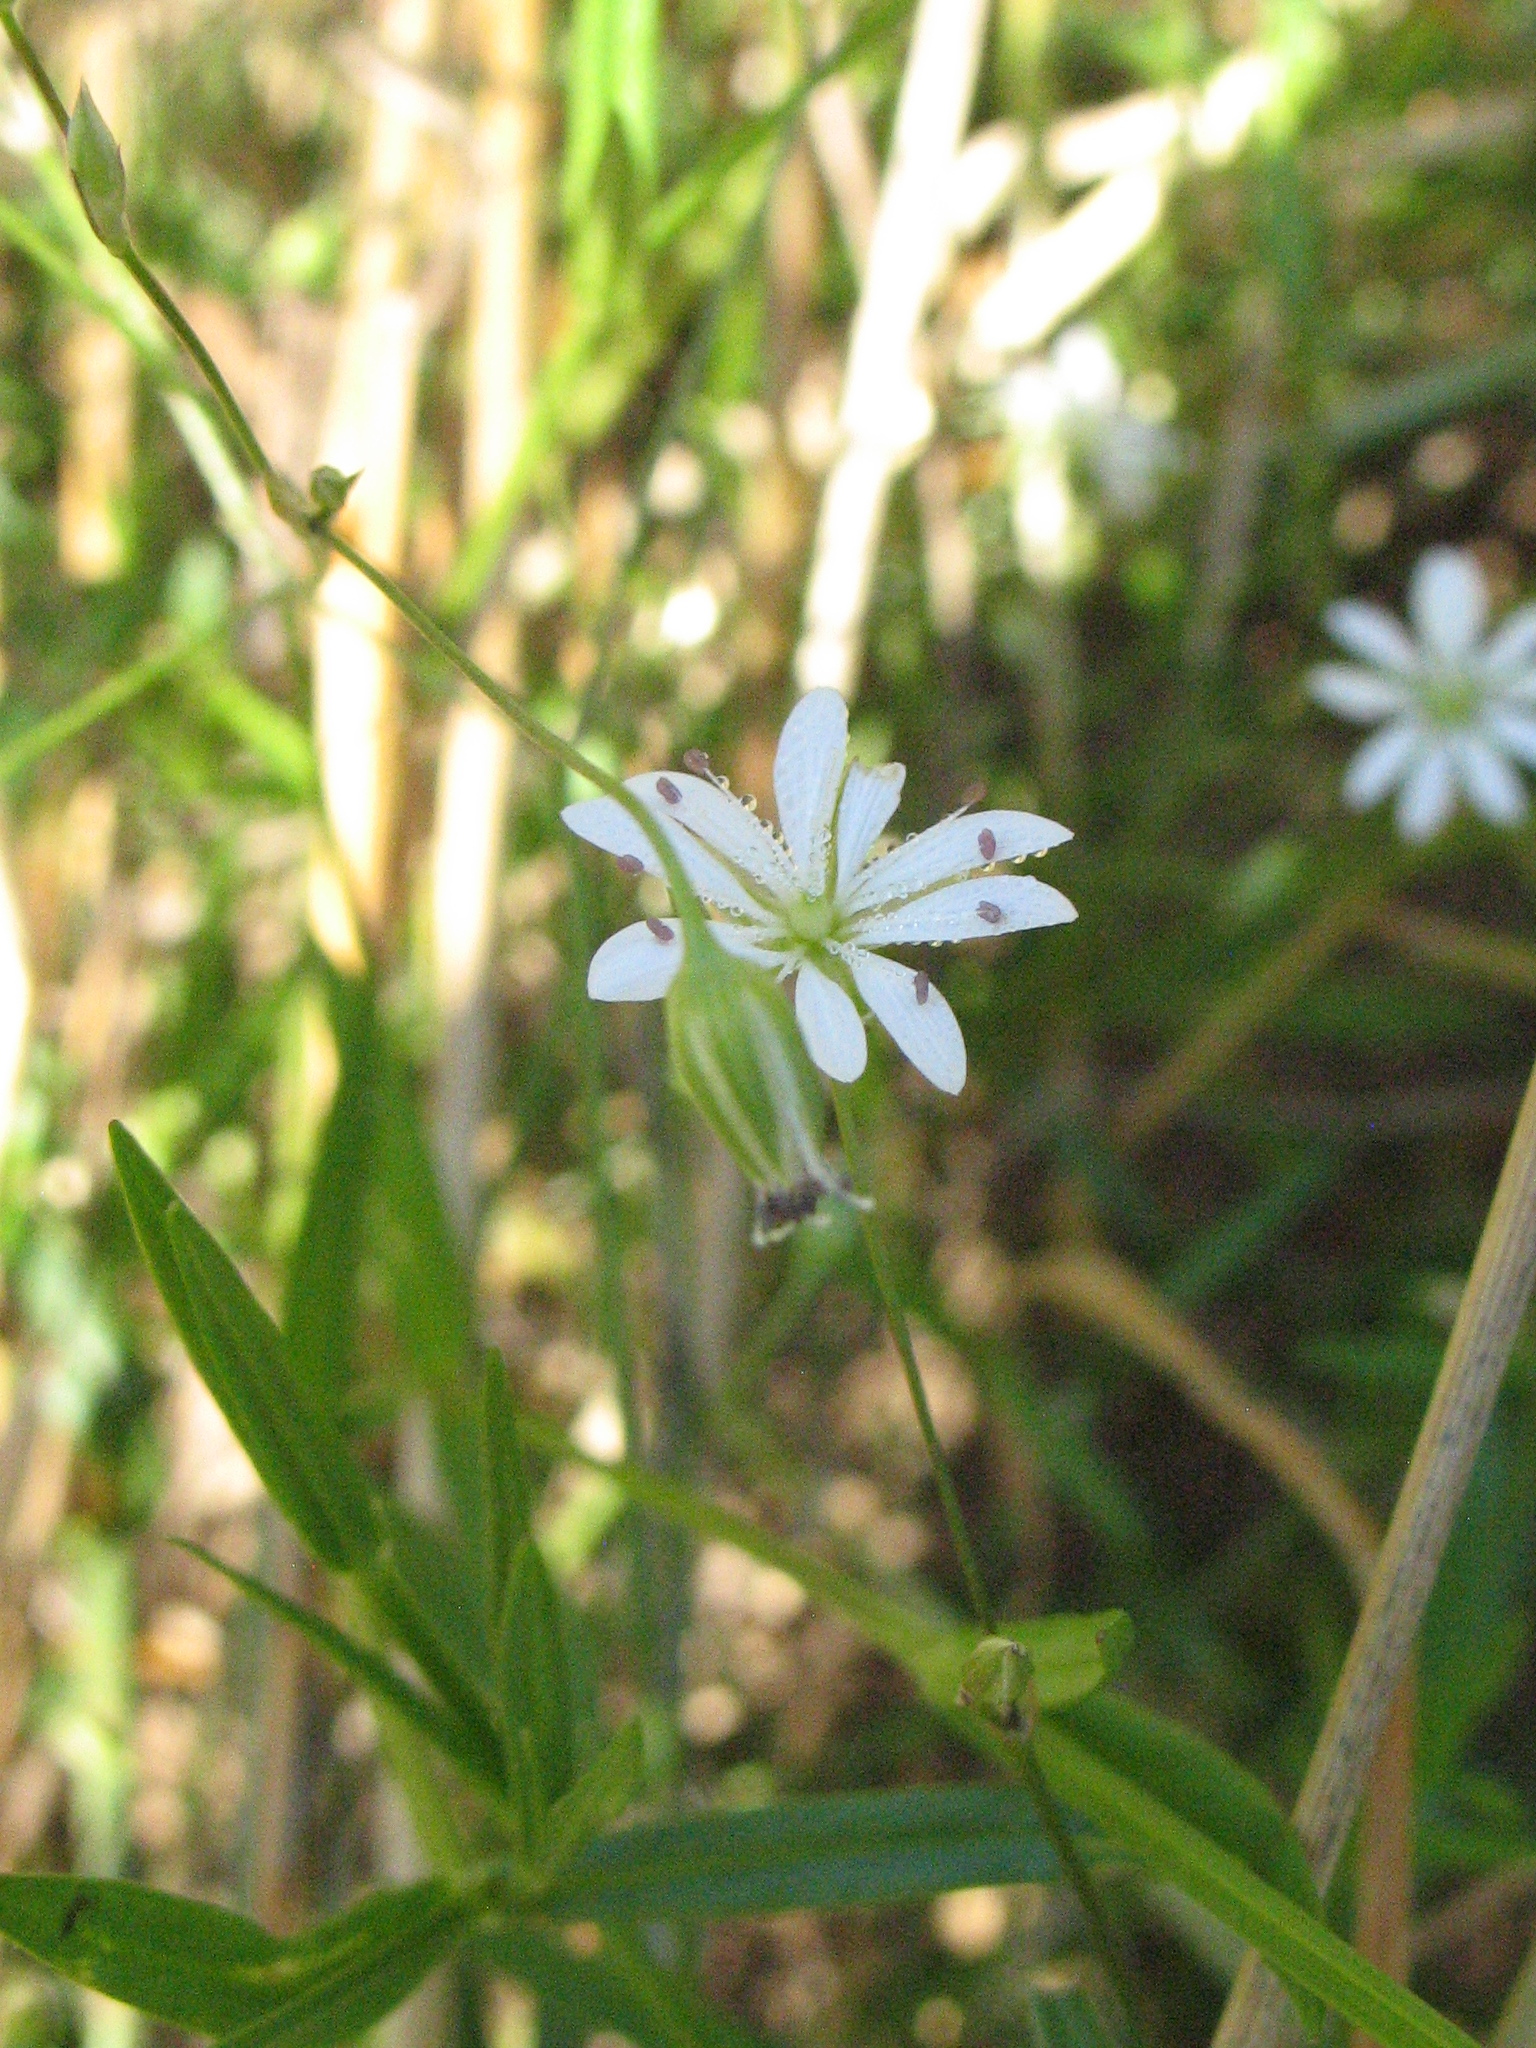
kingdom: Plantae
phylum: Tracheophyta
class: Magnoliopsida
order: Caryophyllales
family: Caryophyllaceae
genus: Stellaria
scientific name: Stellaria graminea
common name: Grass-like starwort
